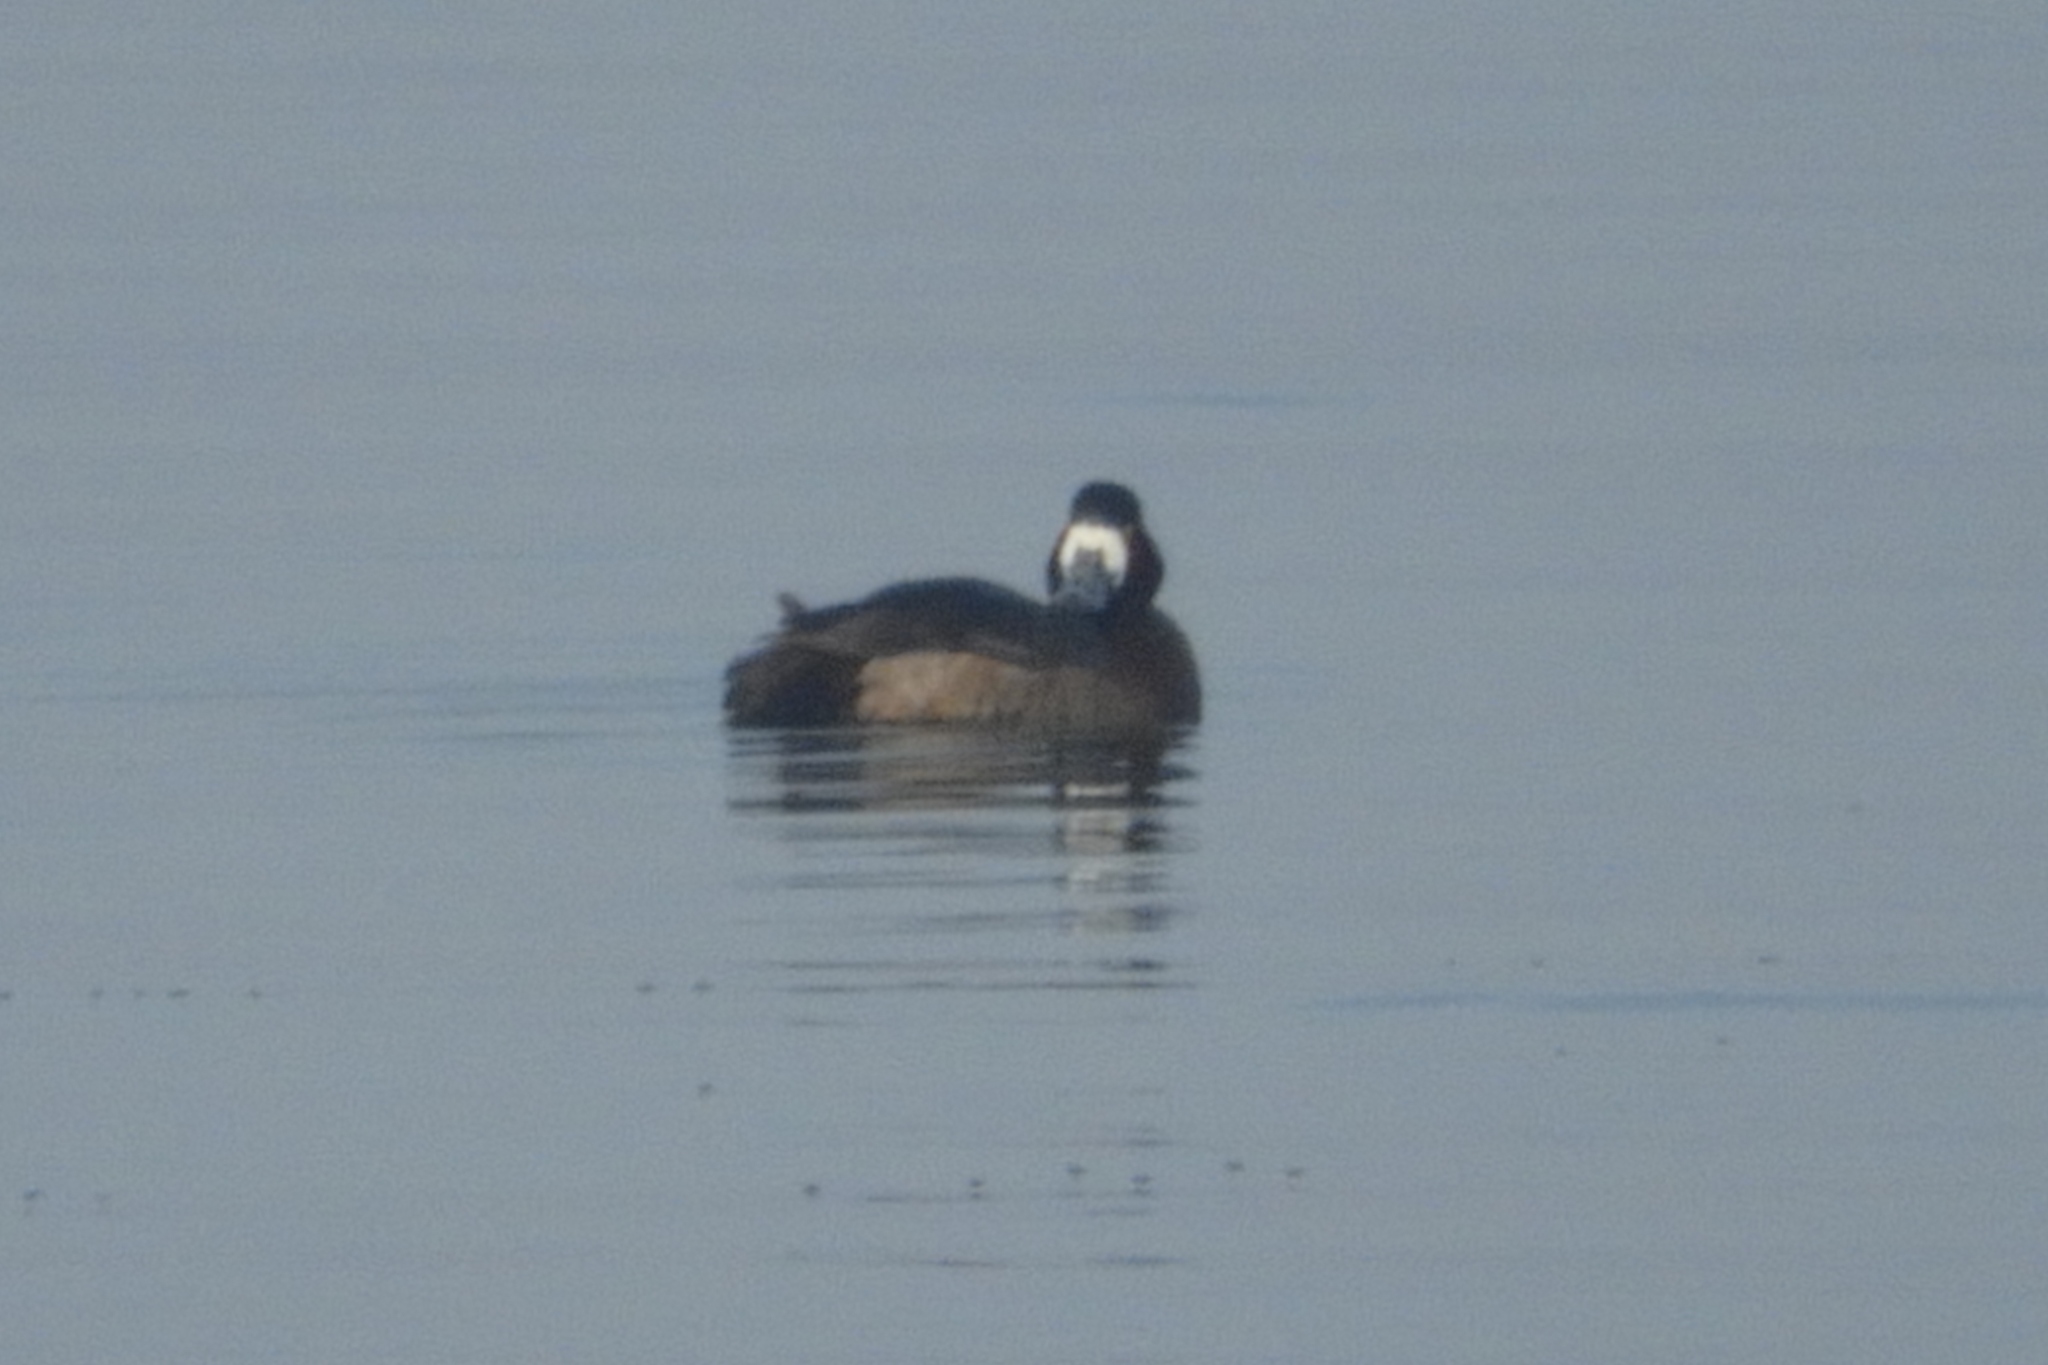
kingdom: Animalia
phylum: Chordata
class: Aves
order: Anseriformes
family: Anatidae
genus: Aythya
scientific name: Aythya marila
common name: Greater scaup
